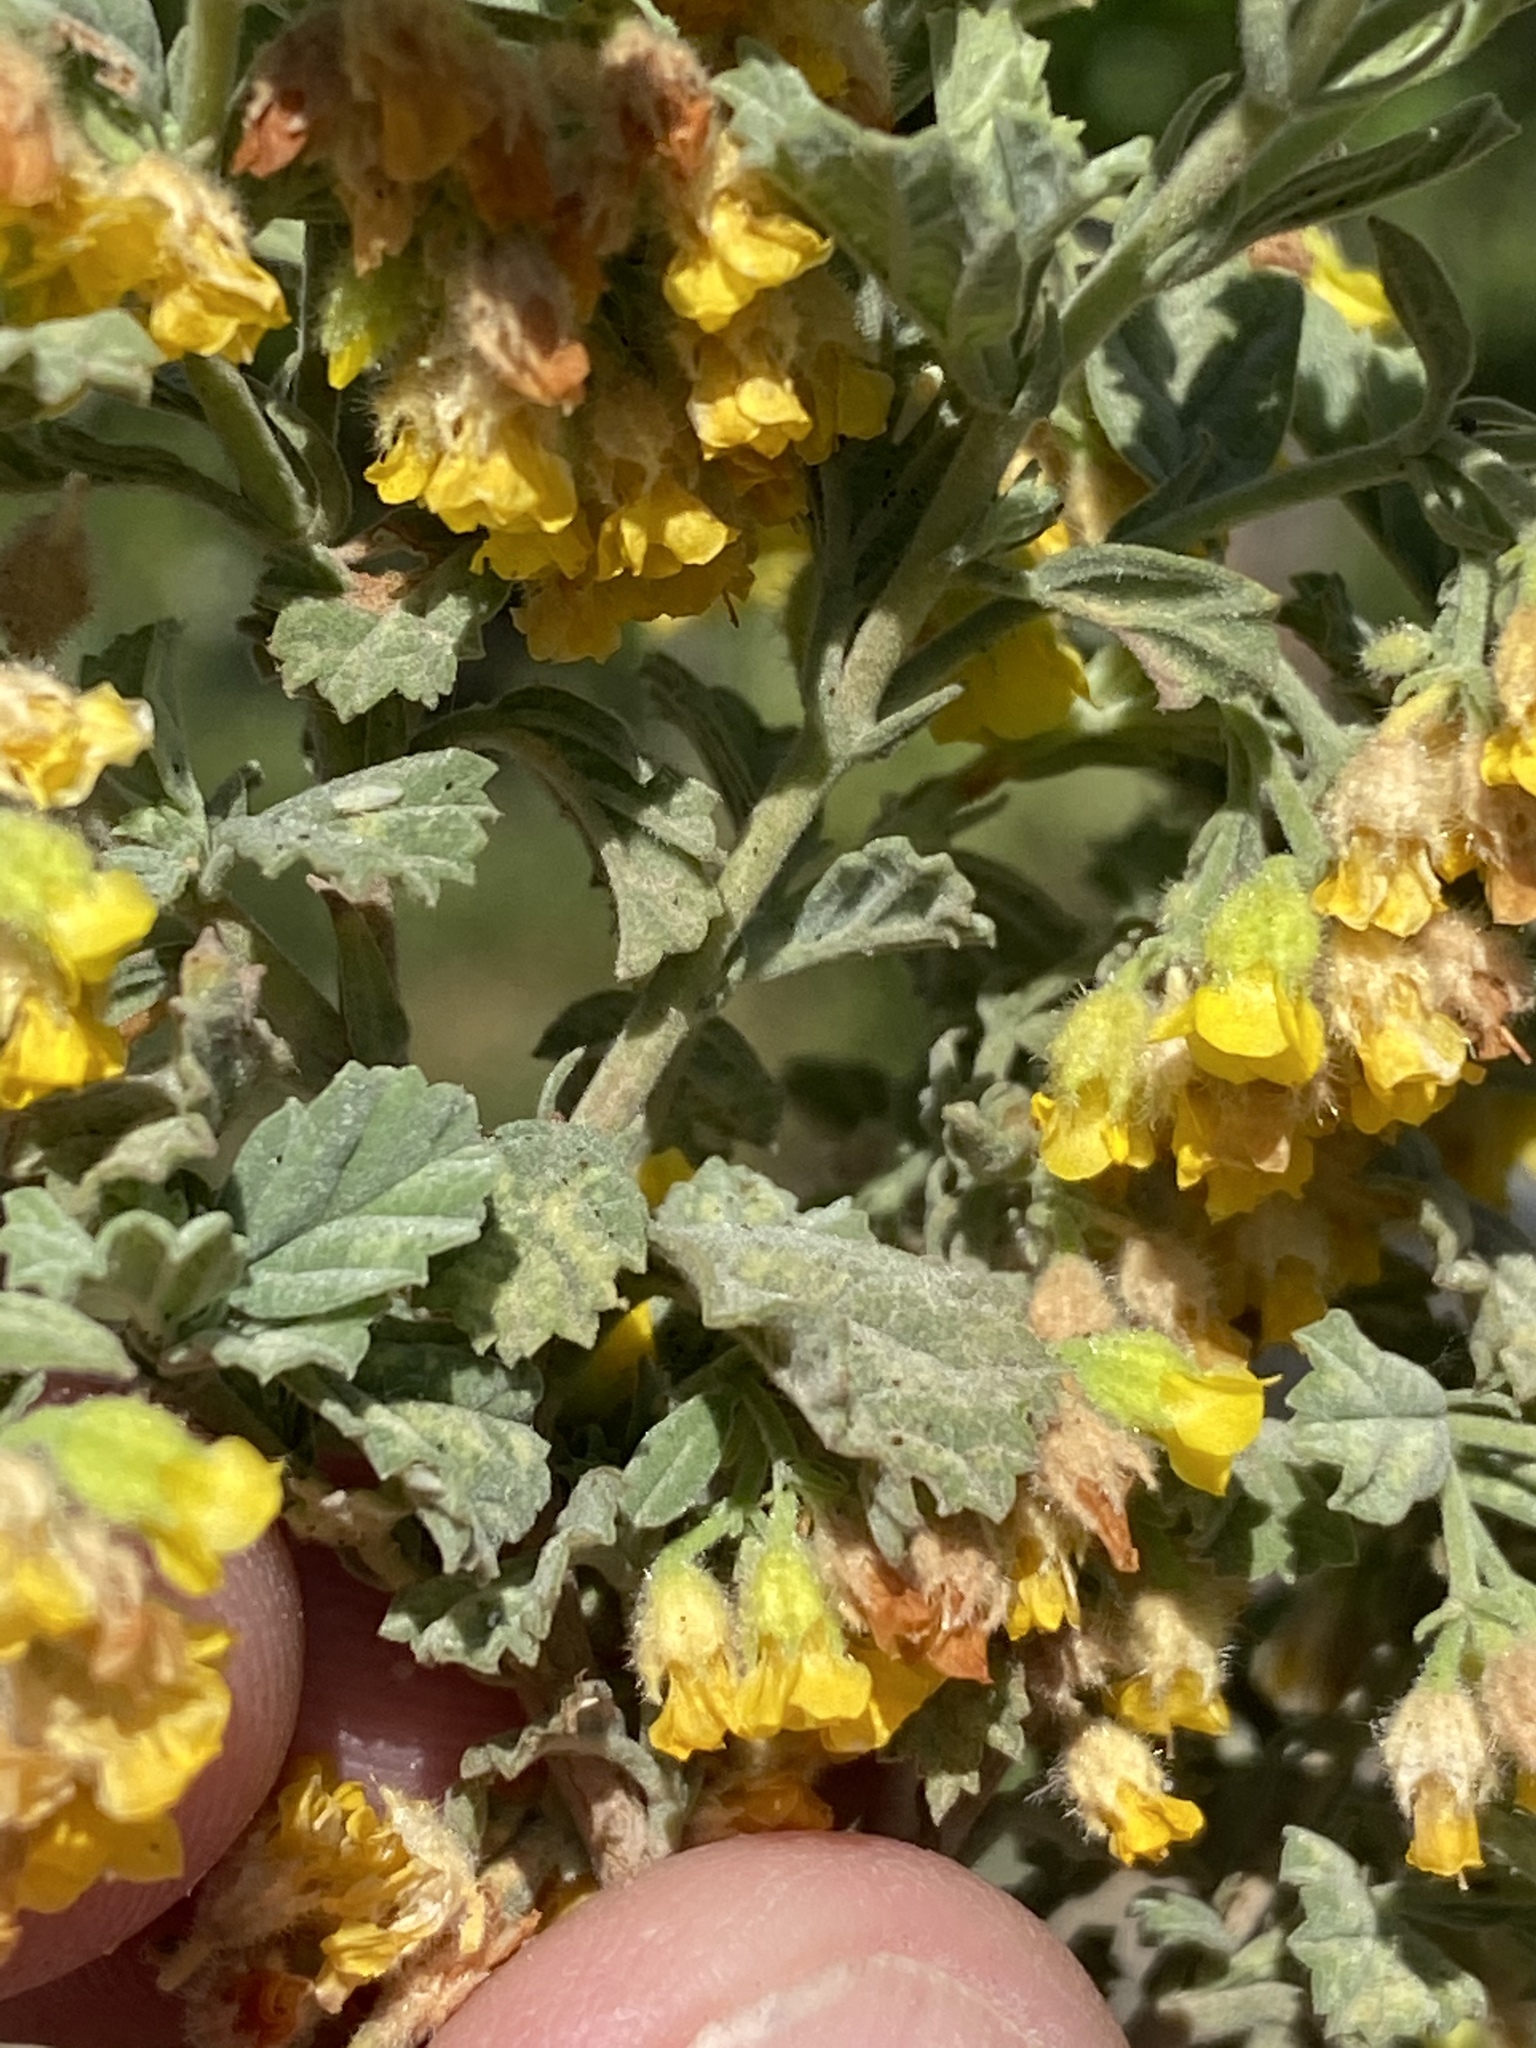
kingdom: Plantae
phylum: Tracheophyta
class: Magnoliopsida
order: Malvales
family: Malvaceae
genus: Hermannia
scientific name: Hermannia alnifolia
